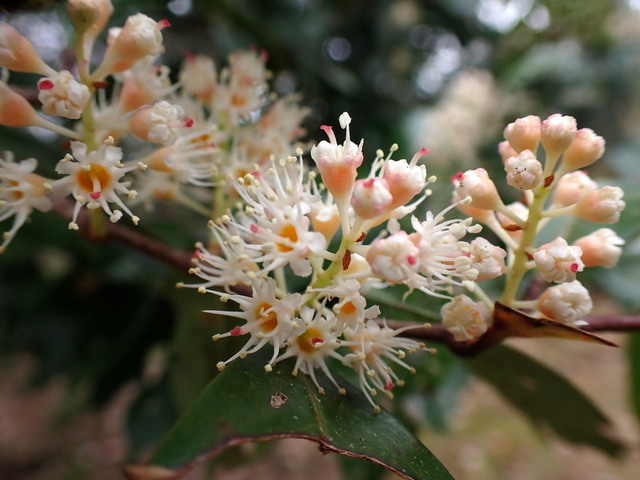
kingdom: Plantae
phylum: Tracheophyta
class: Magnoliopsida
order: Rosales
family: Rosaceae
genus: Prunus
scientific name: Prunus caroliniana
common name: Carolina laurel cherry
